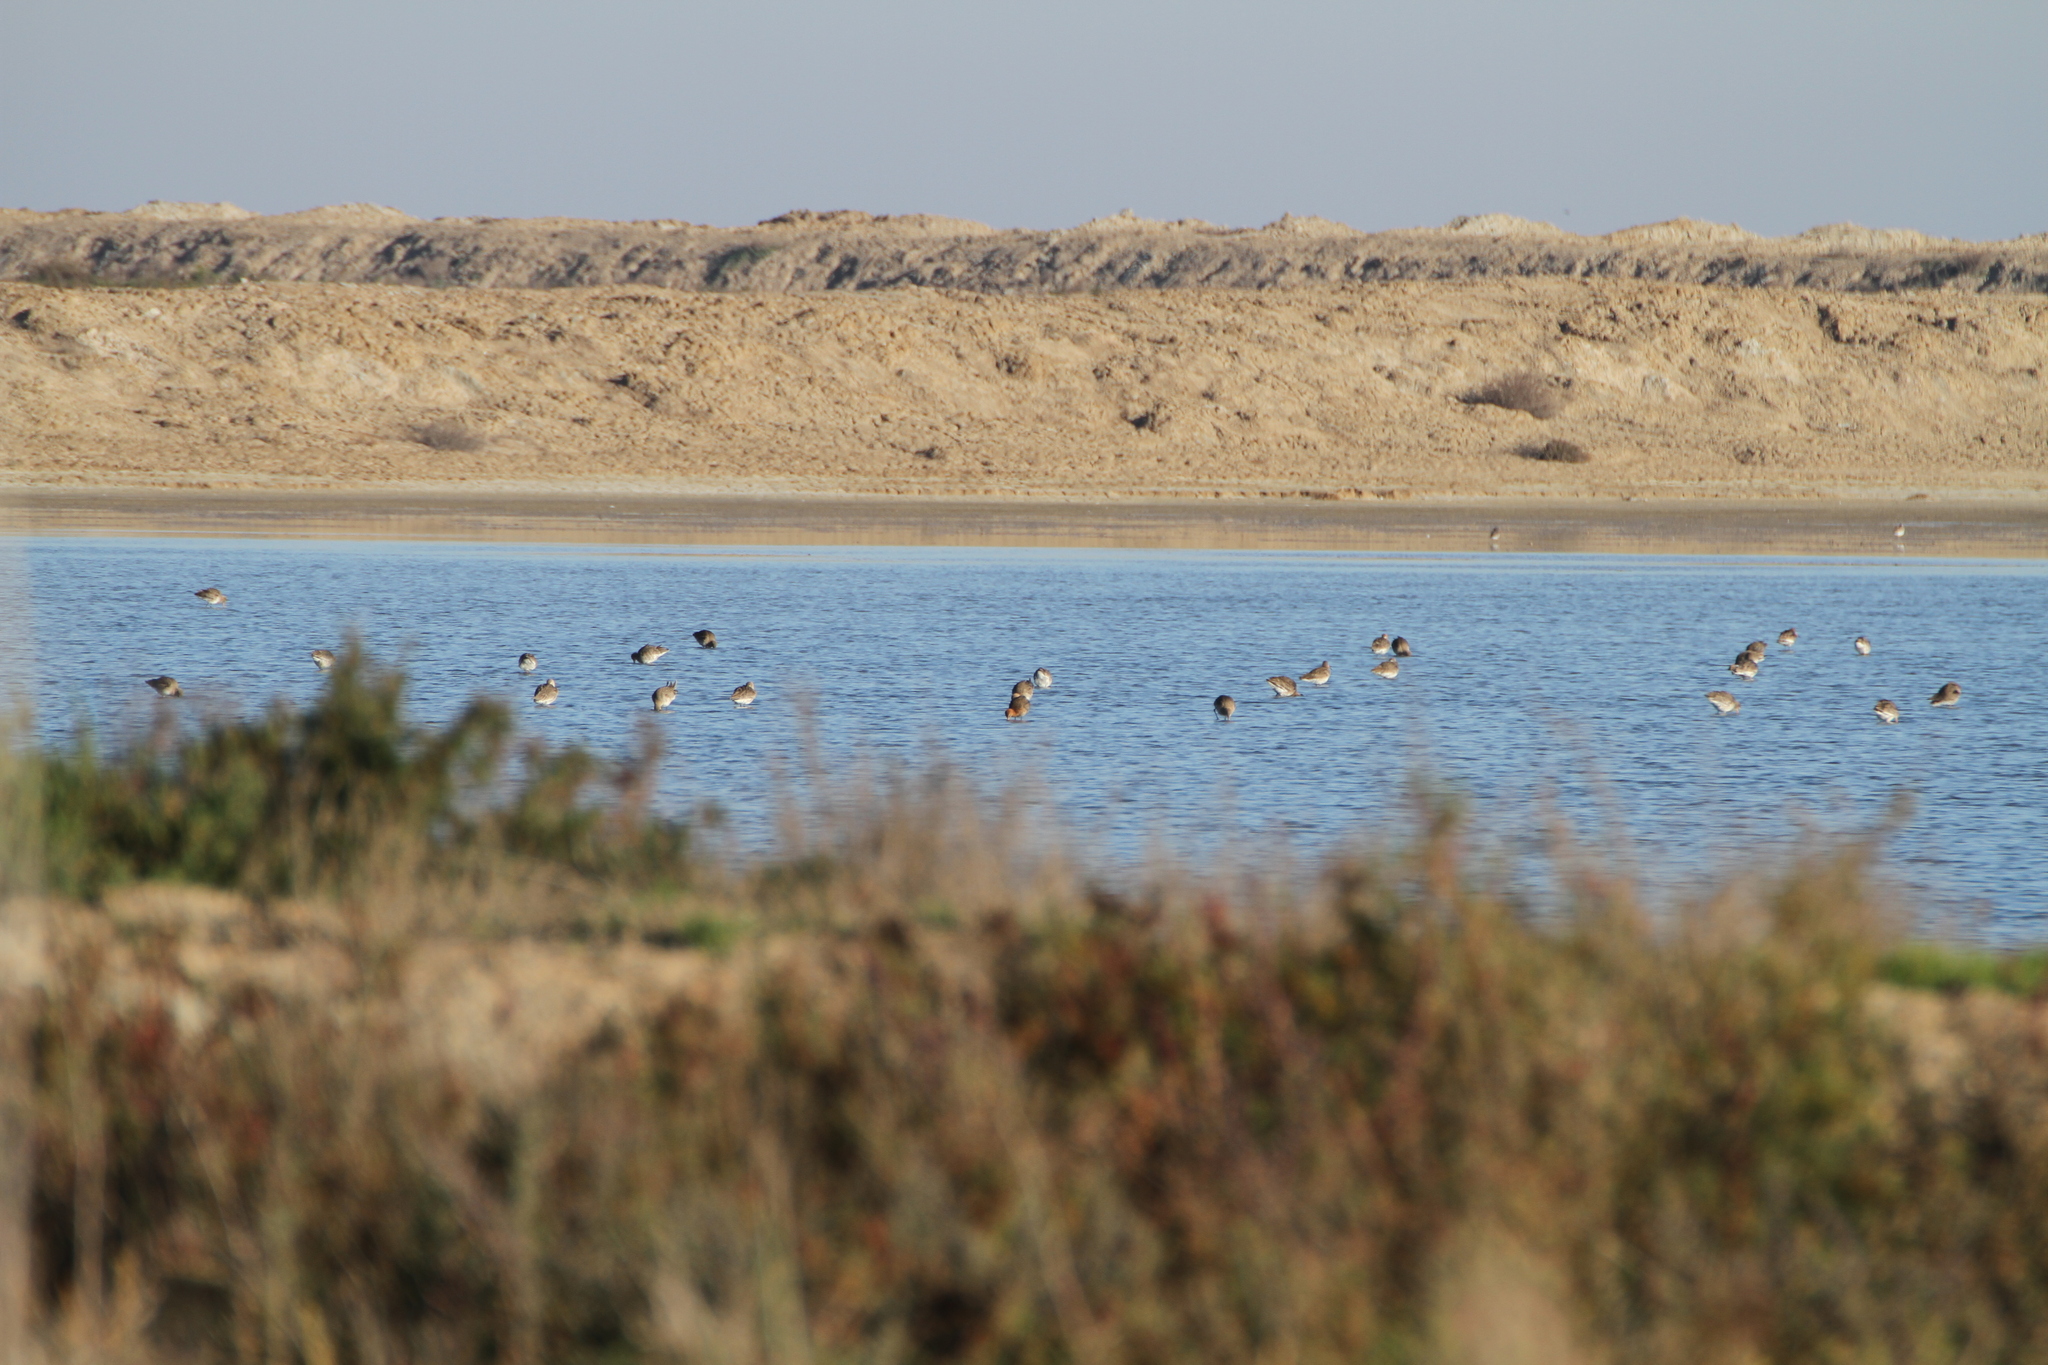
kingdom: Animalia
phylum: Chordata
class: Aves
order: Charadriiformes
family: Scolopacidae
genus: Limosa
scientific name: Limosa limosa
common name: Black-tailed godwit
